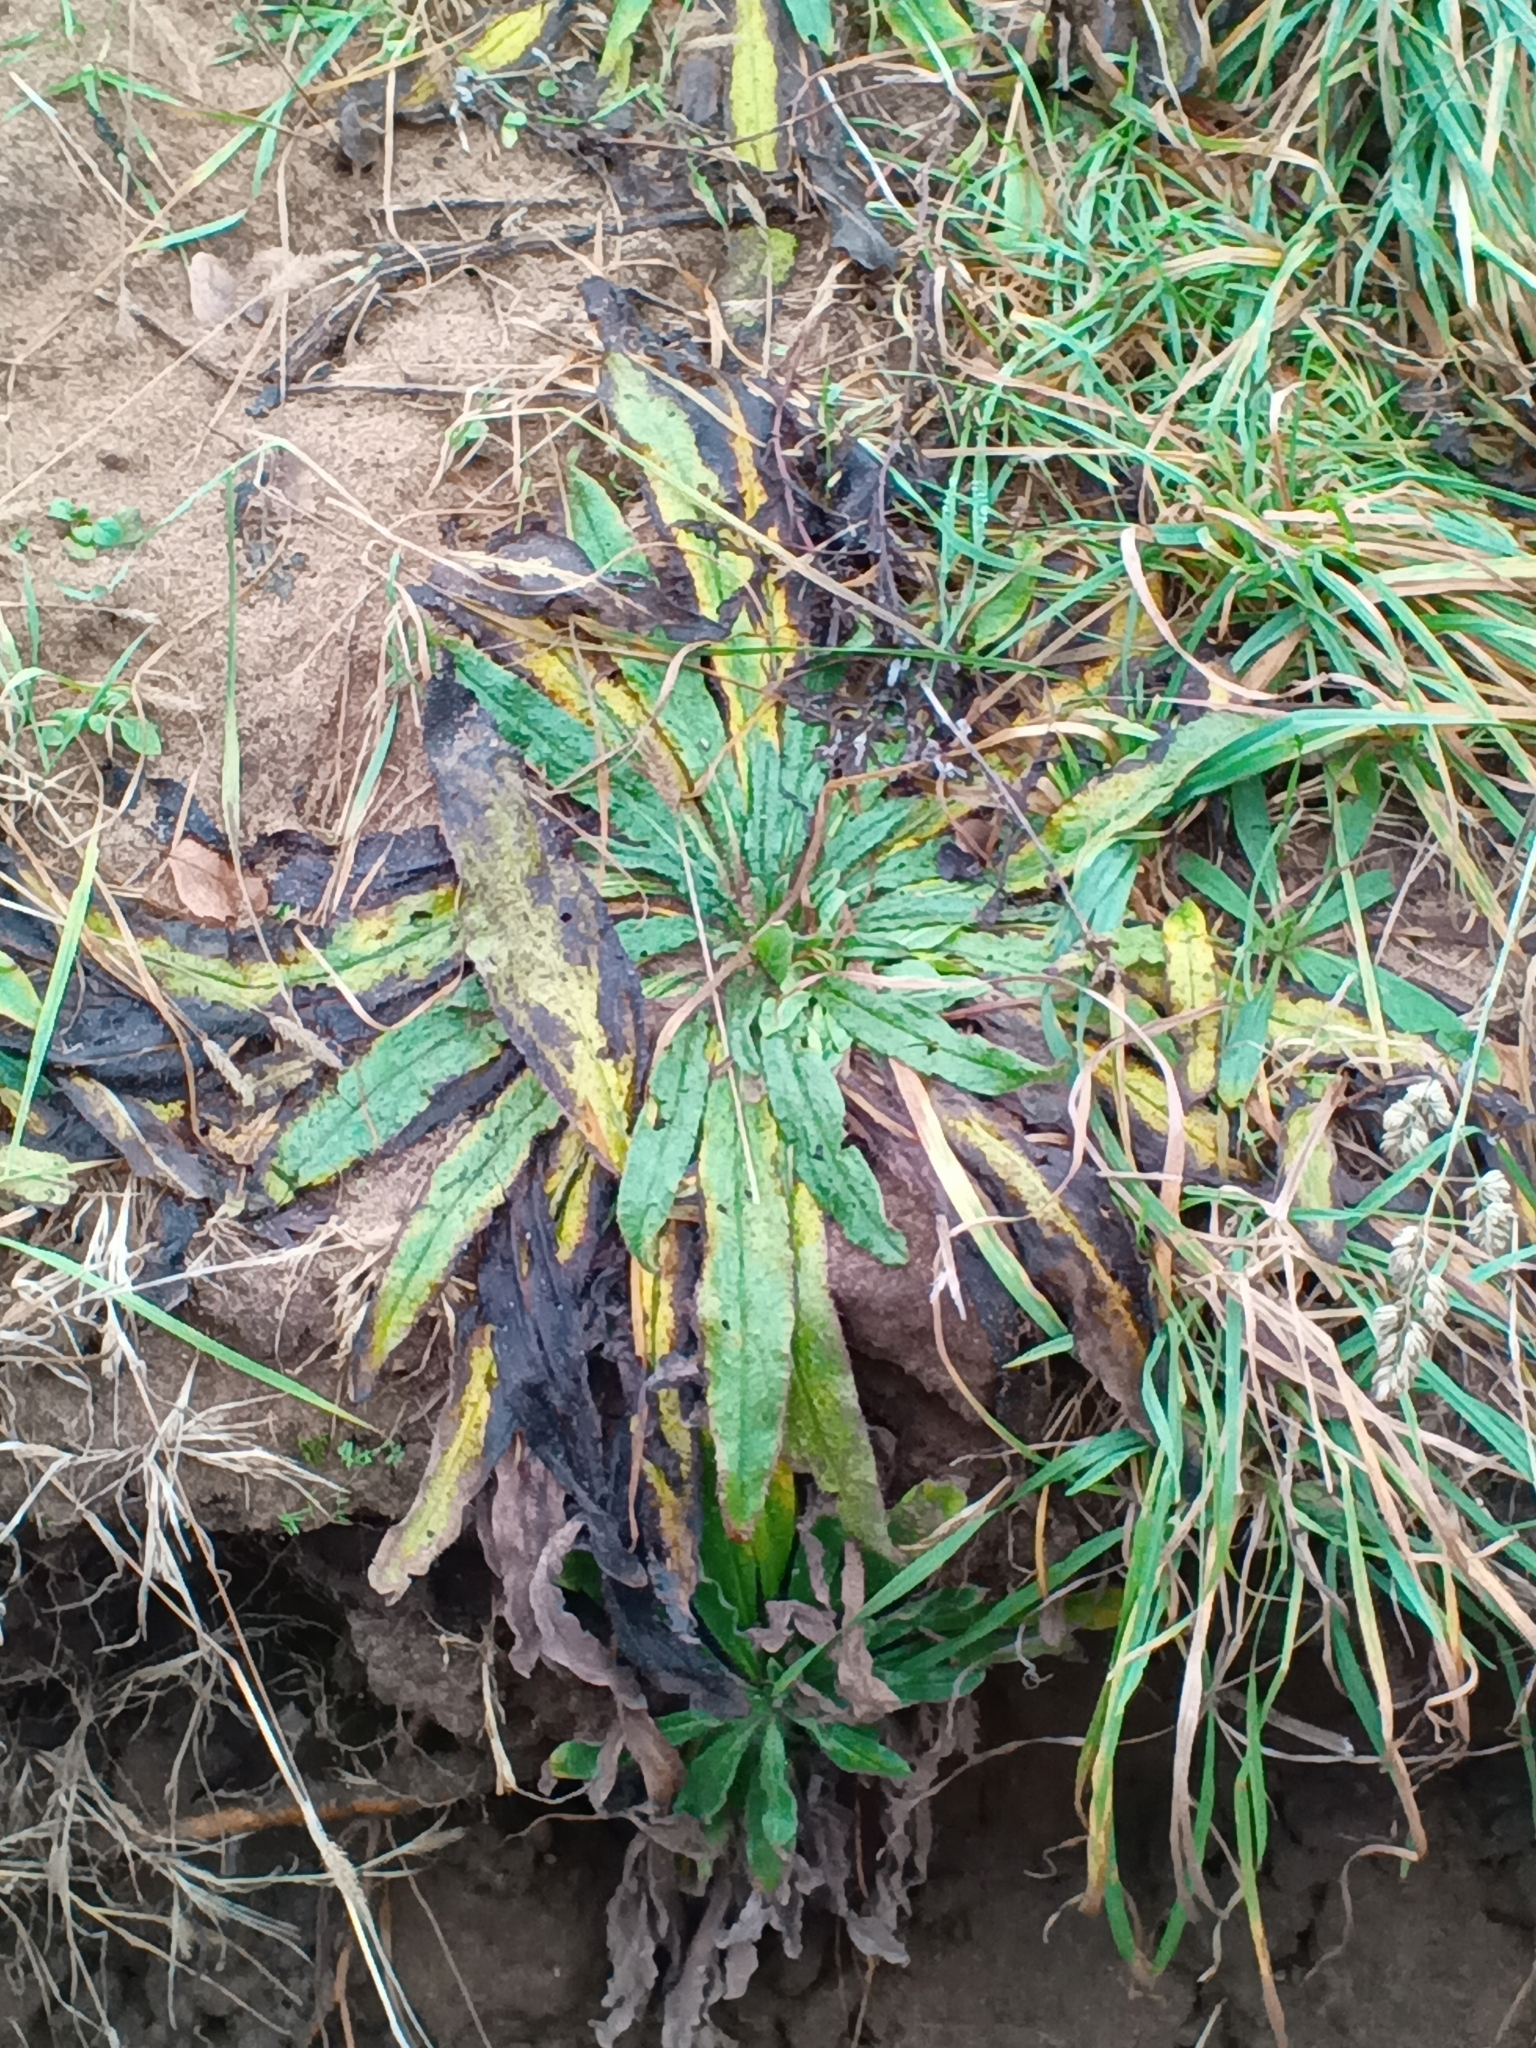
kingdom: Plantae
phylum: Tracheophyta
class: Magnoliopsida
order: Boraginales
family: Boraginaceae
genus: Echium
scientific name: Echium vulgare
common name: Common viper's bugloss
